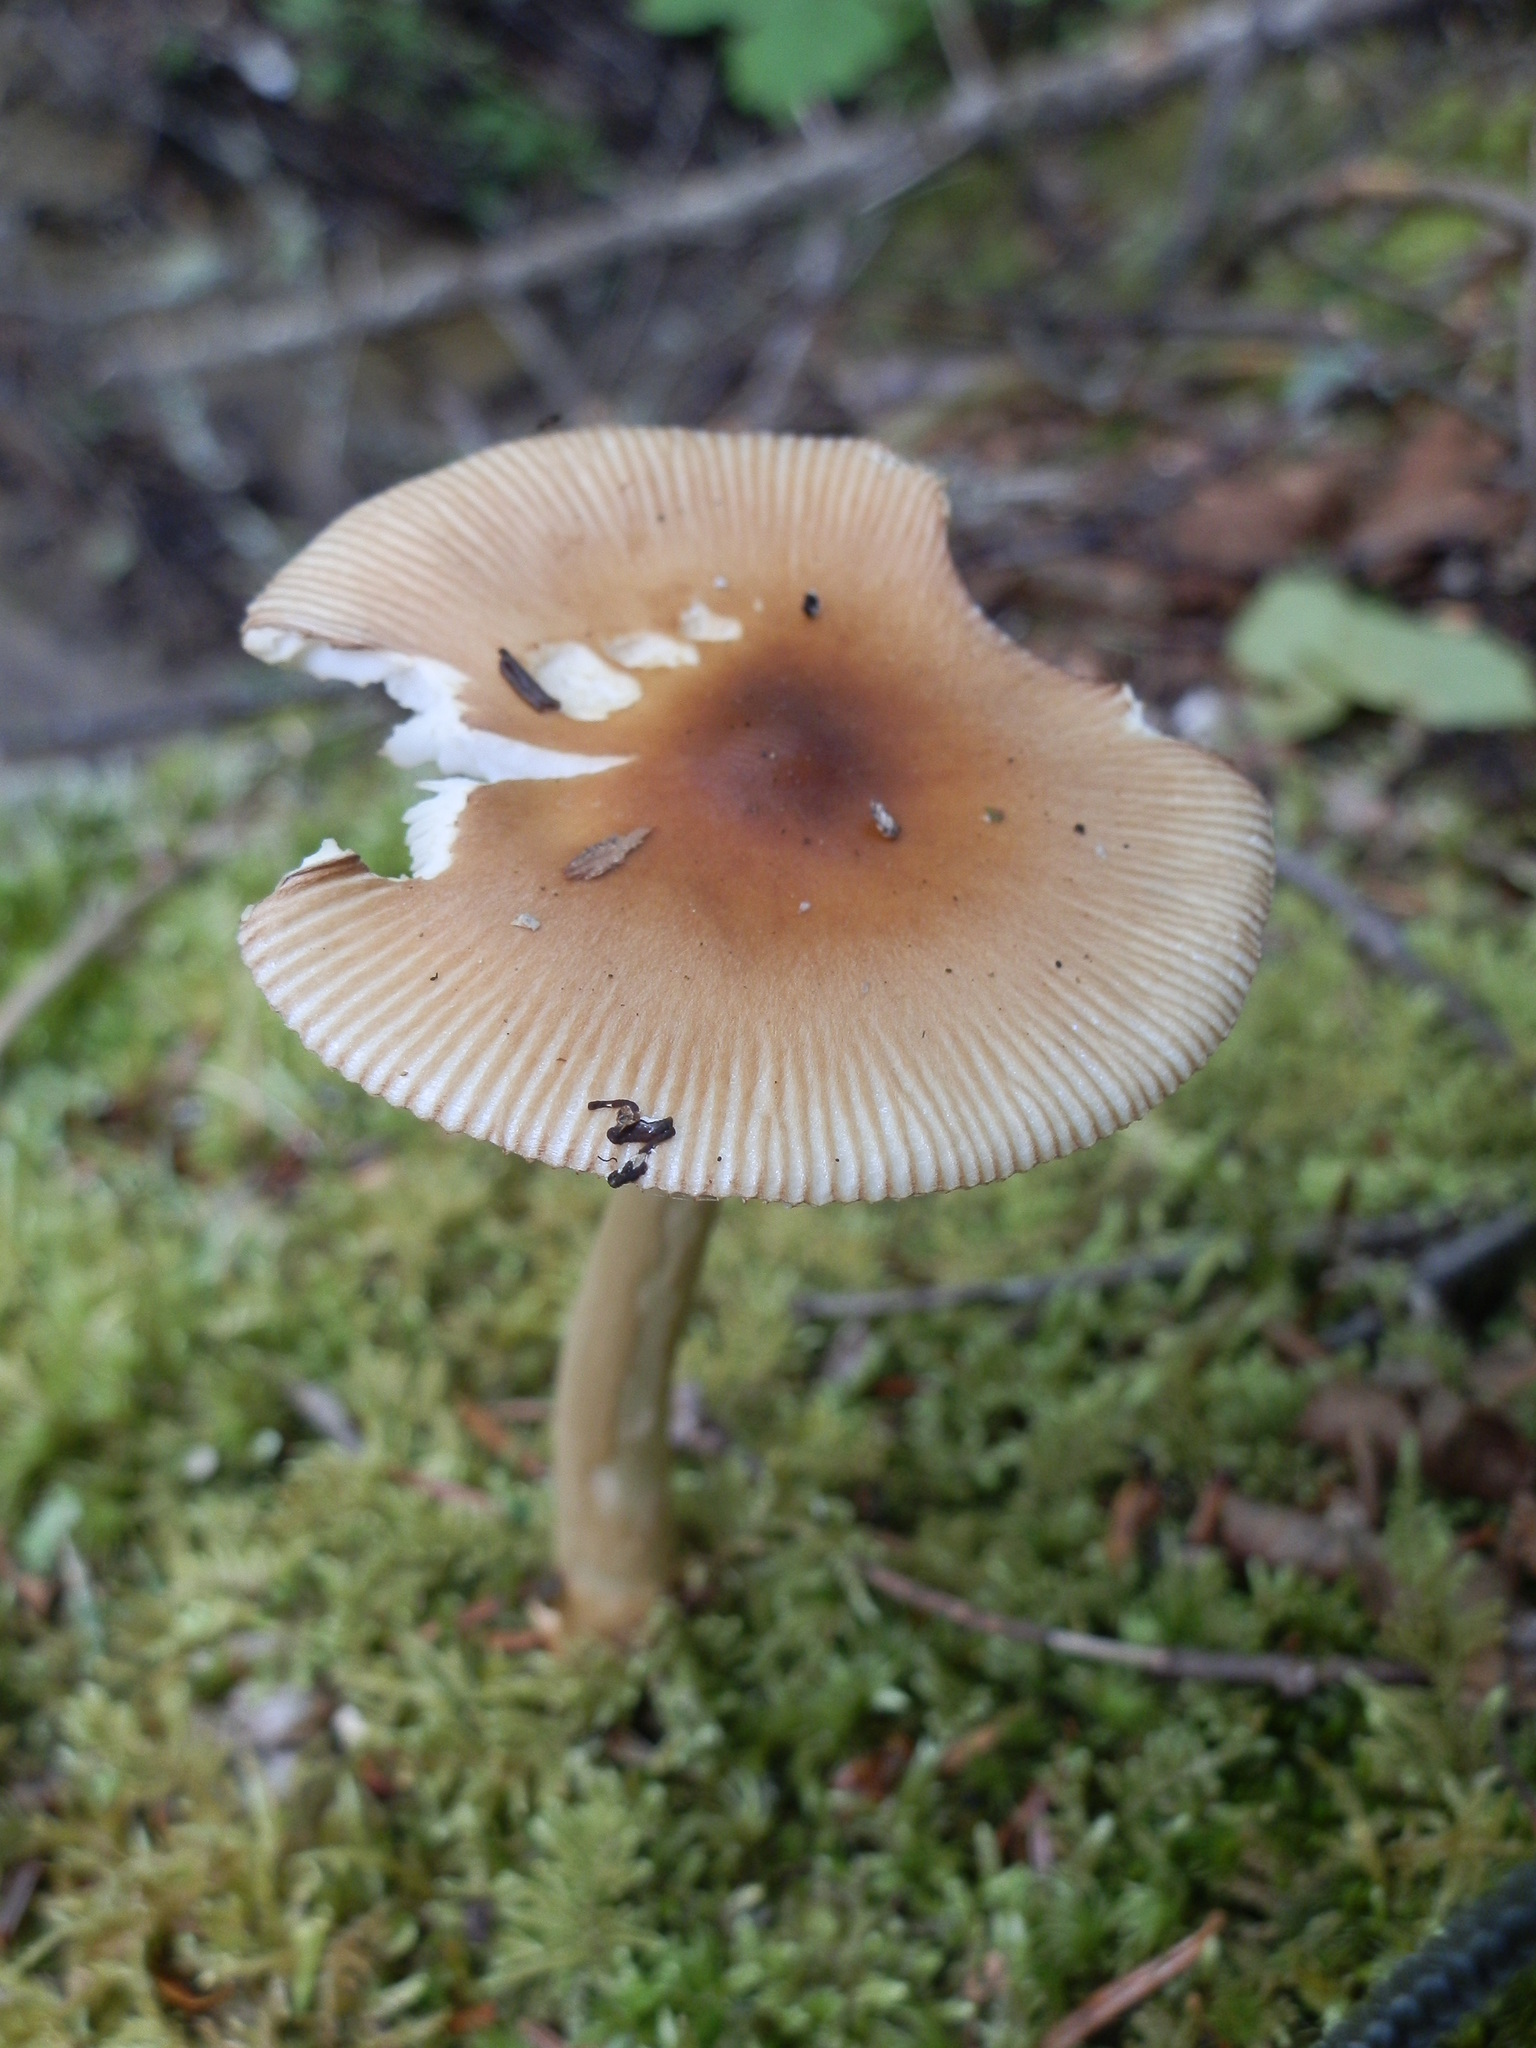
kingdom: Fungi
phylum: Basidiomycota
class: Agaricomycetes
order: Agaricales
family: Amanitaceae
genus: Amanita
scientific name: Amanita fulva
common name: Tawny grisette
